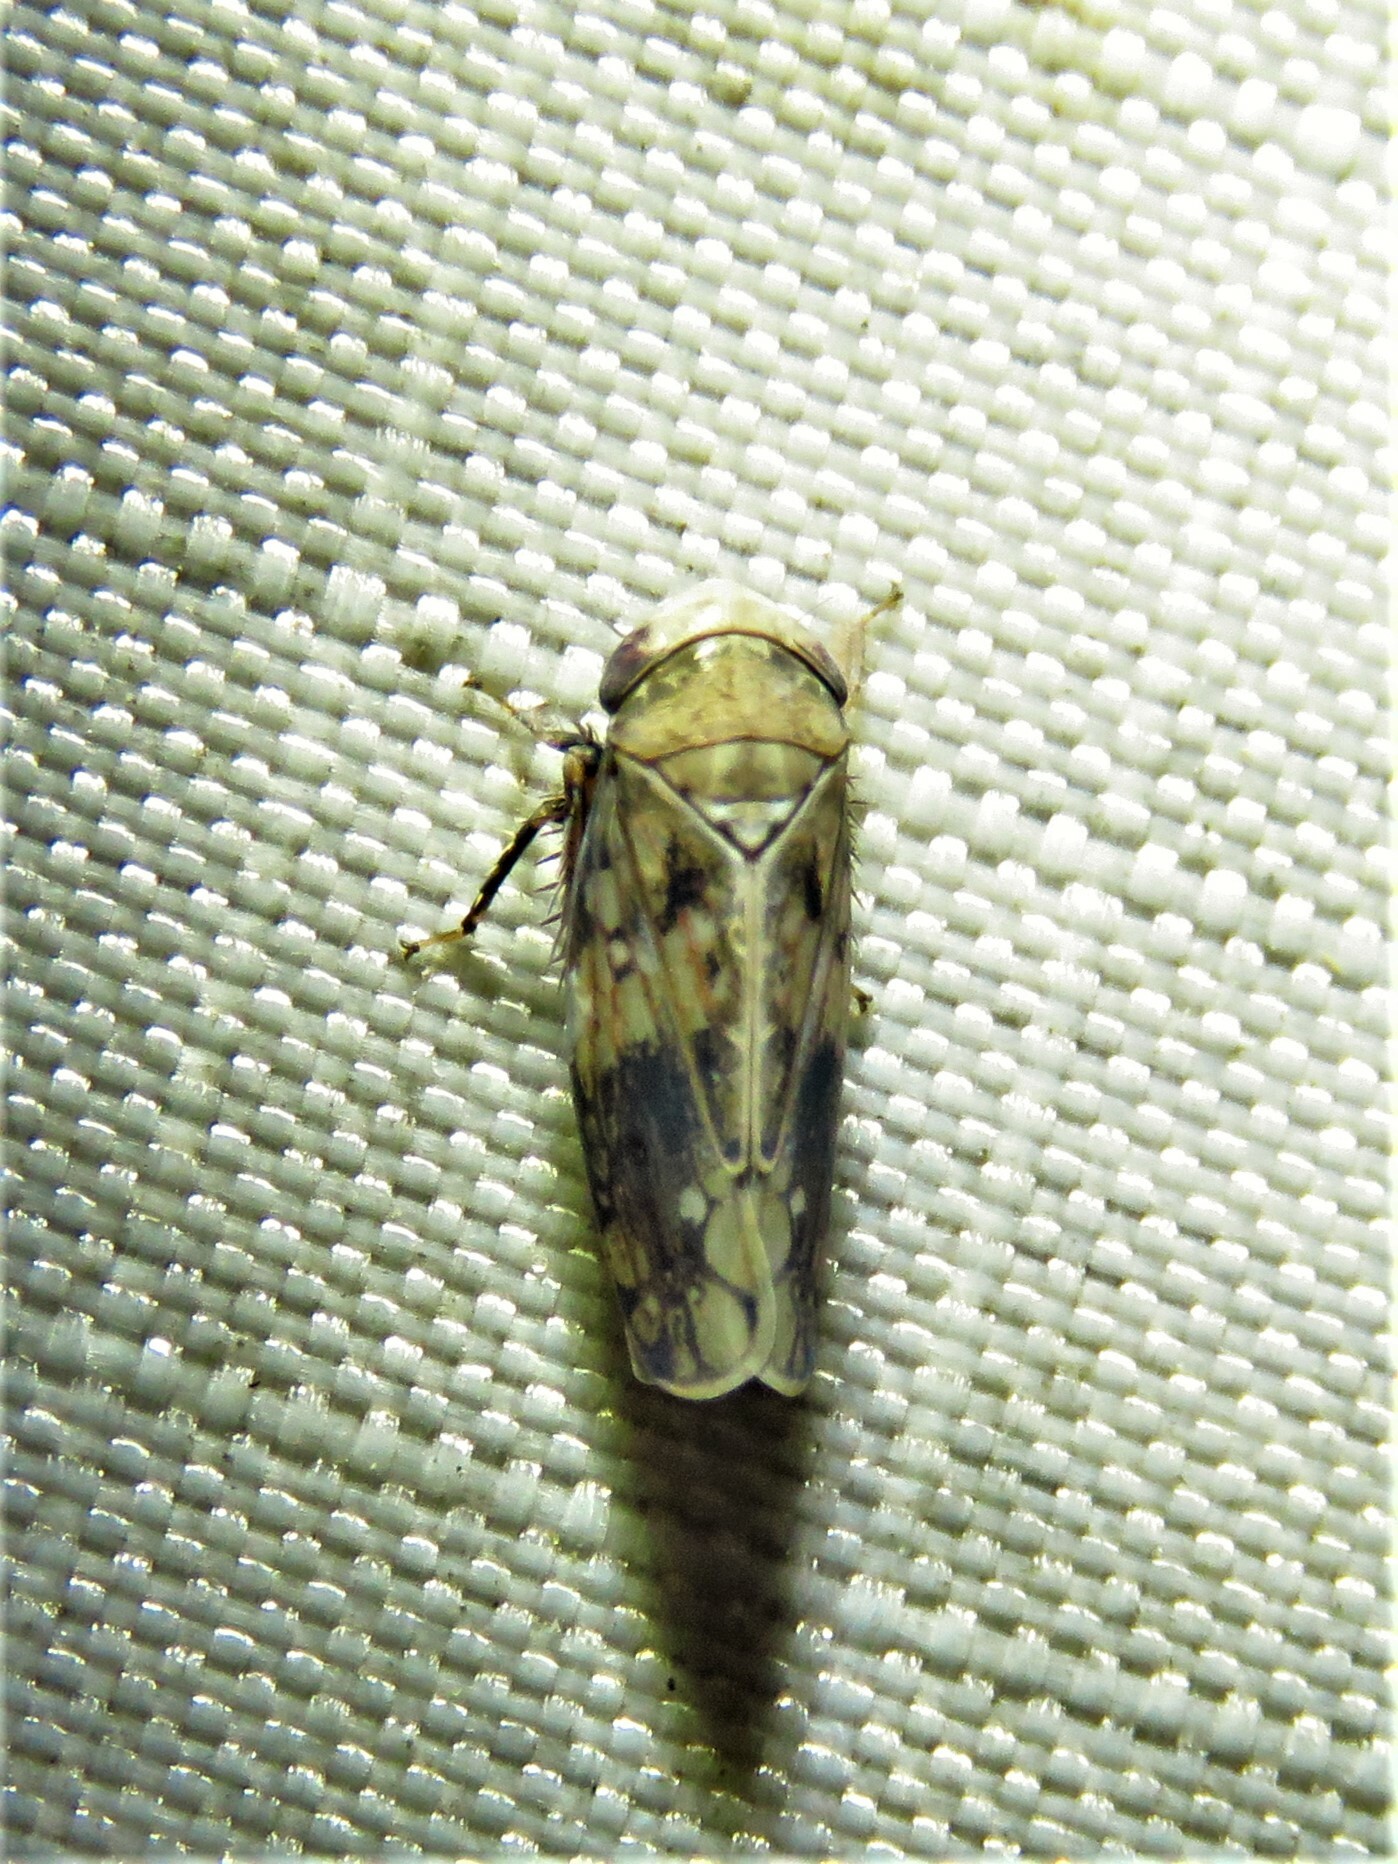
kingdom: Animalia
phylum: Arthropoda
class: Insecta
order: Hemiptera
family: Cicadellidae
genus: Menosoma
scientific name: Menosoma cinctum
